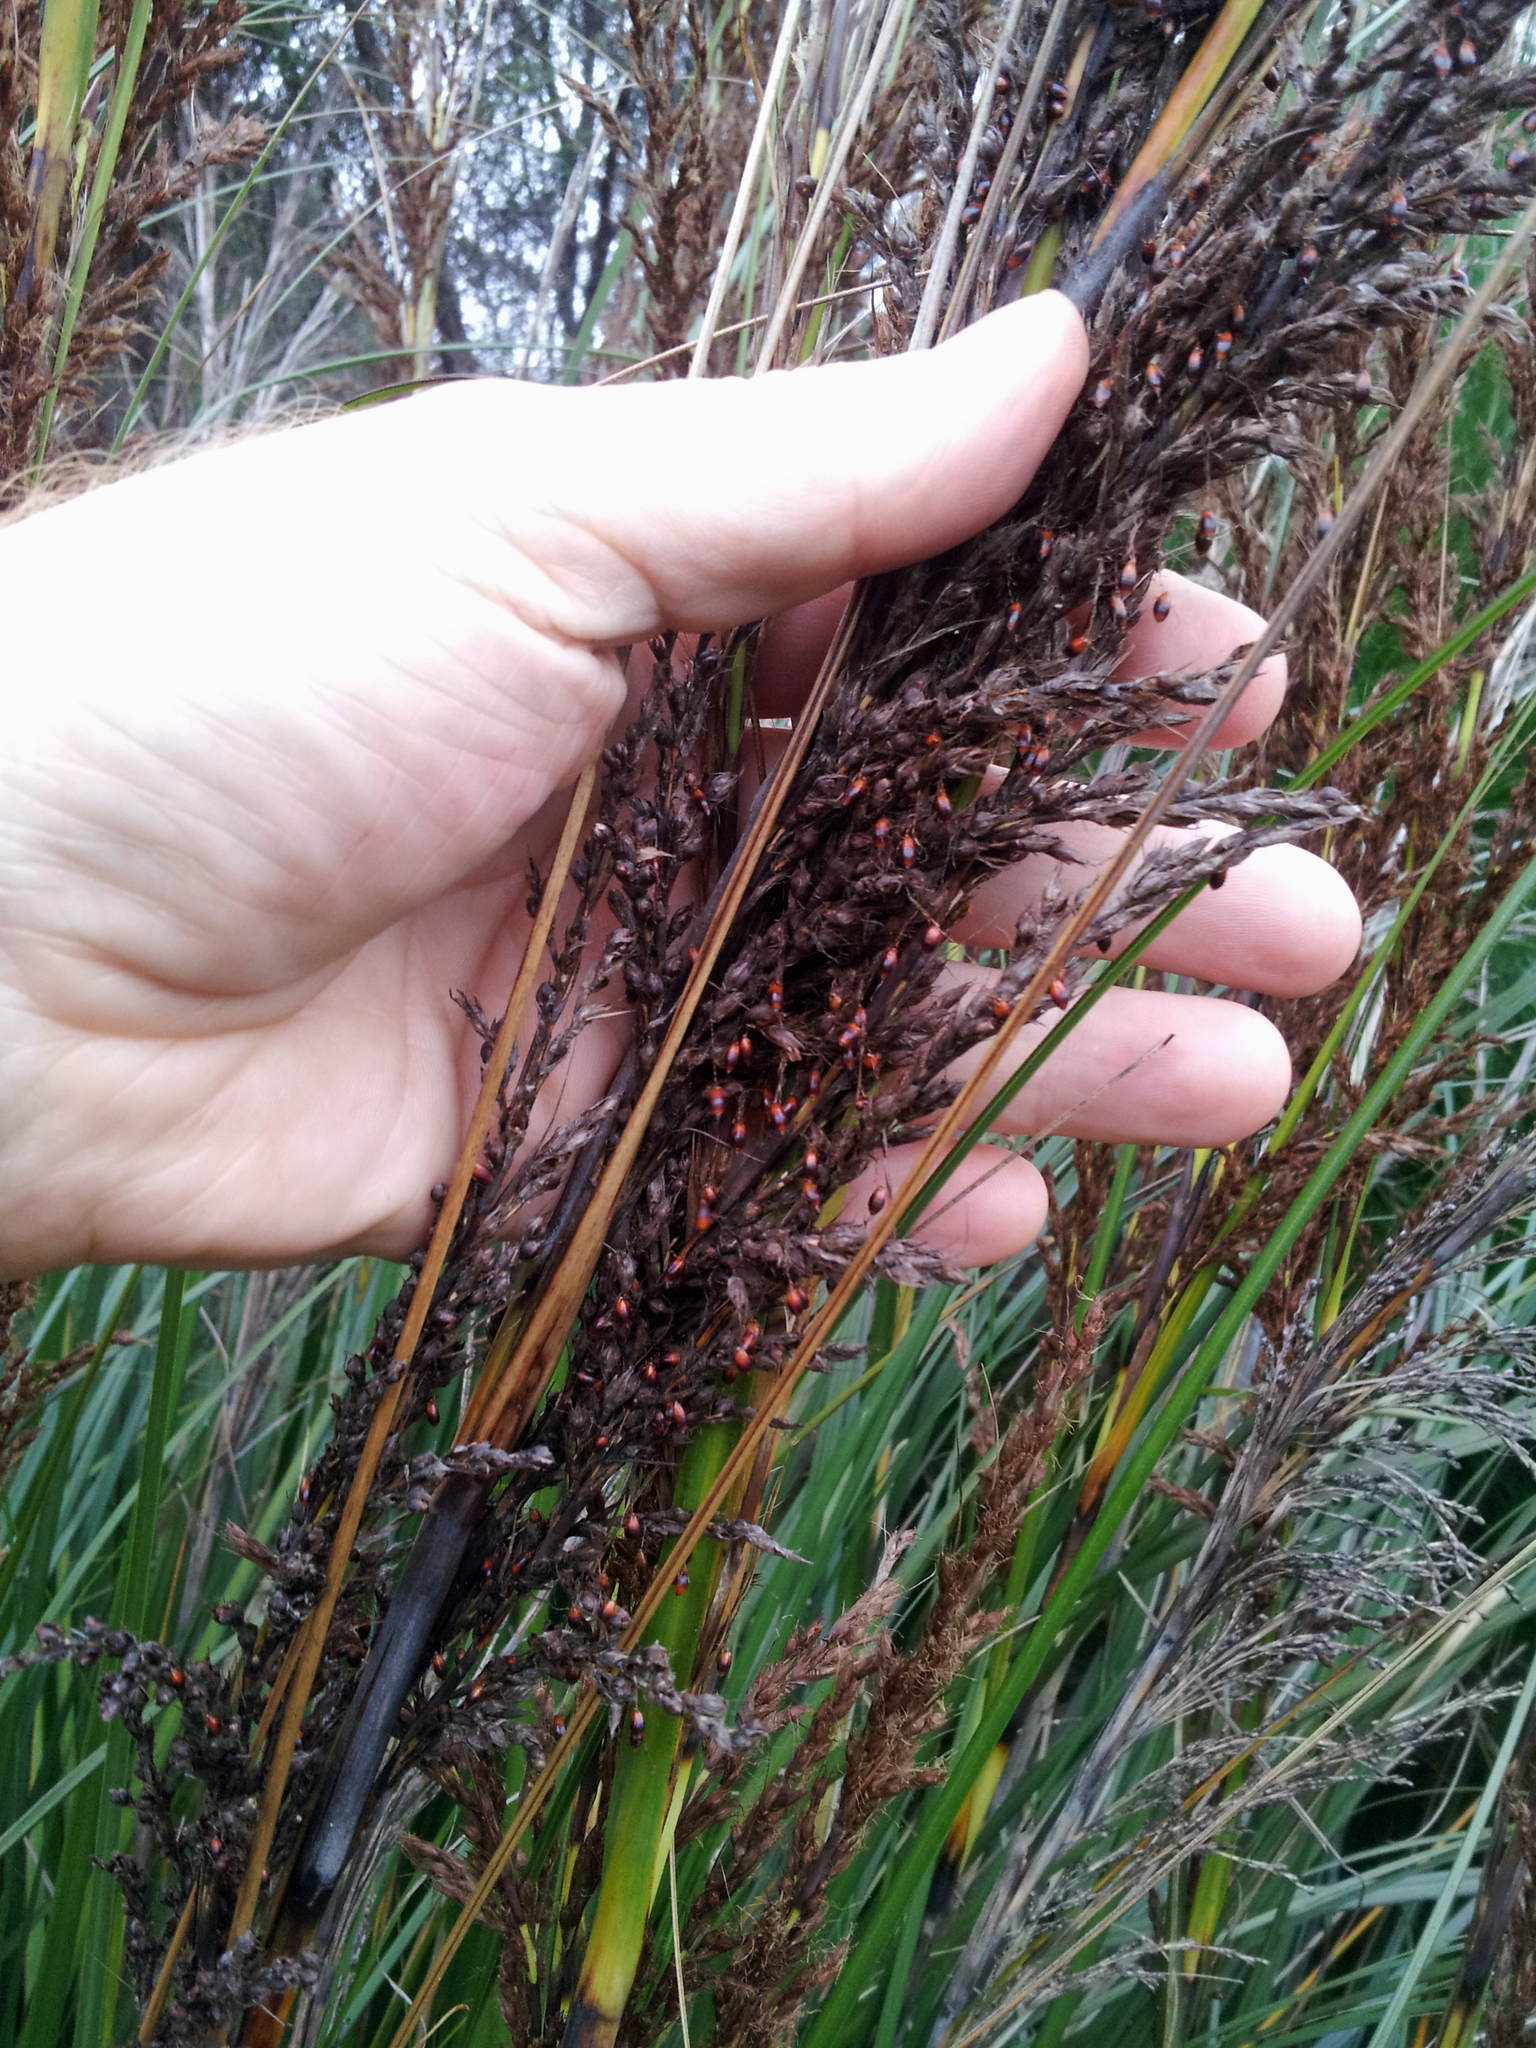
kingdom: Plantae
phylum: Tracheophyta
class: Liliopsida
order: Poales
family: Cyperaceae
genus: Gahnia
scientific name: Gahnia rigida
